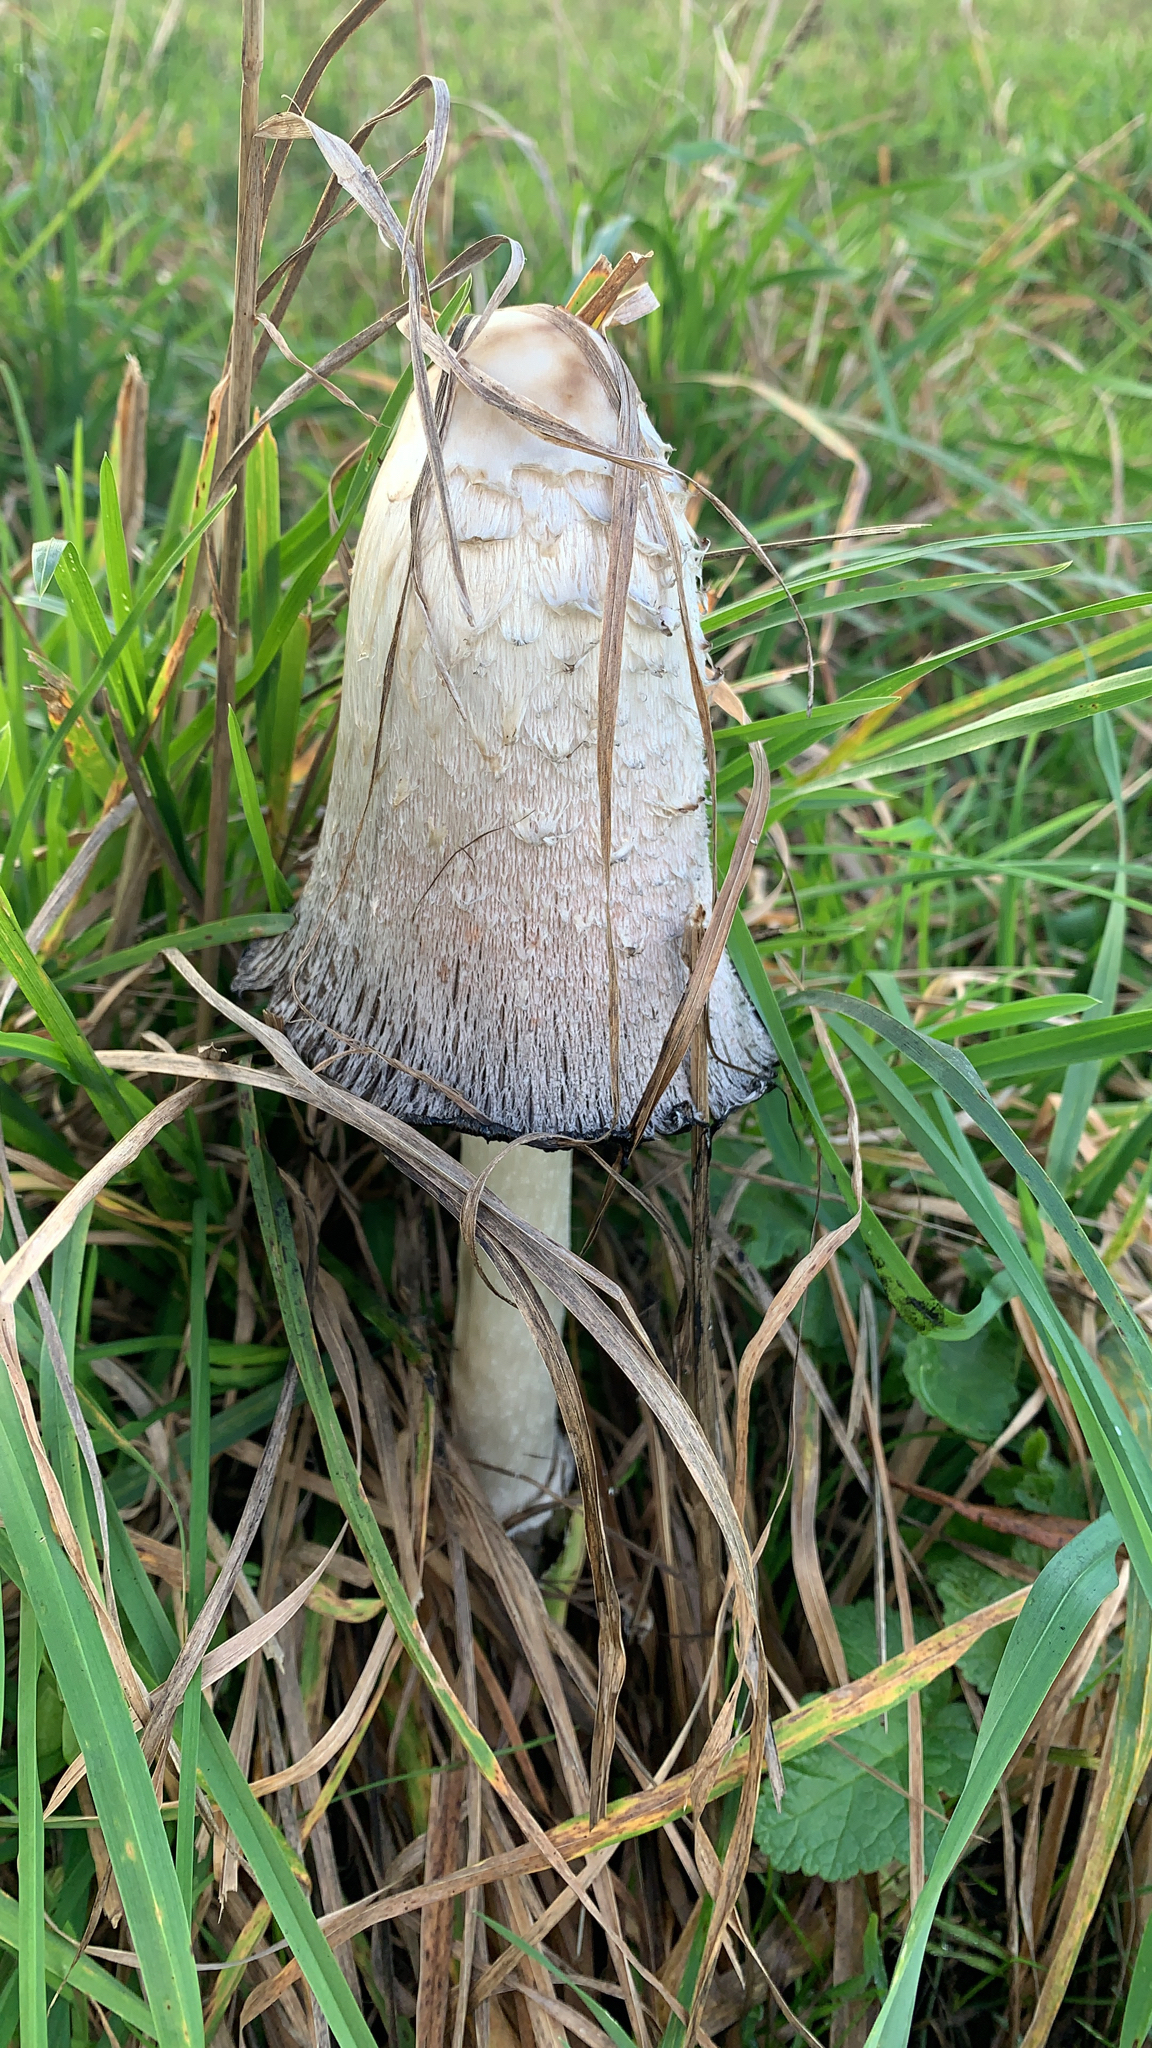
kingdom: Fungi
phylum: Basidiomycota
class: Agaricomycetes
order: Agaricales
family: Agaricaceae
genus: Coprinus
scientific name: Coprinus comatus
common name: Lawyer's wig
